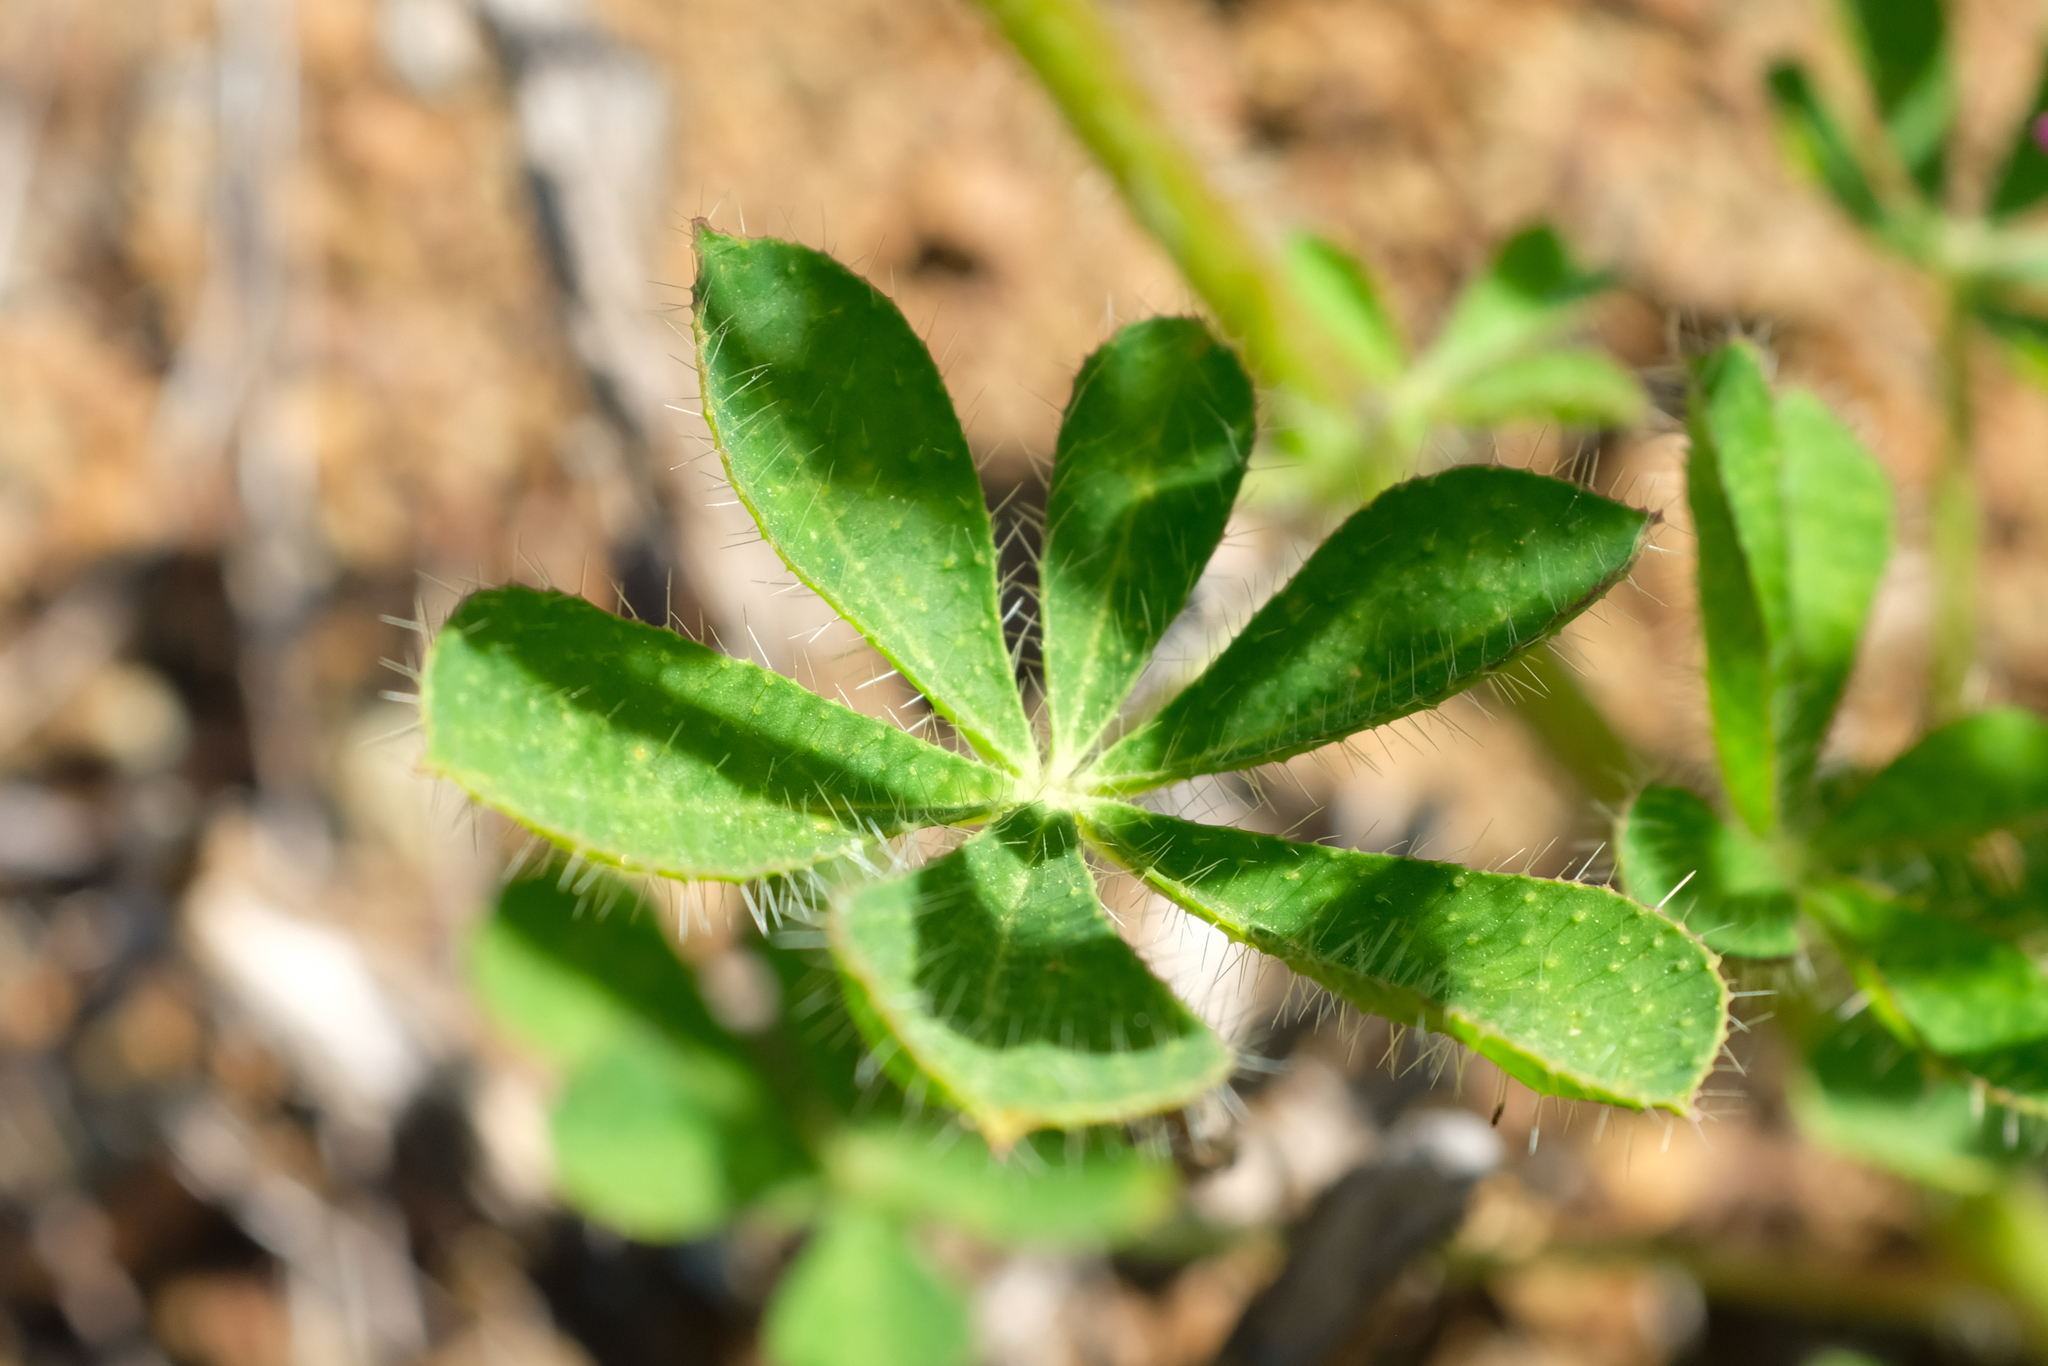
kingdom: Plantae
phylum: Tracheophyta
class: Magnoliopsida
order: Fabales
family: Fabaceae
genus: Lupinus
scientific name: Lupinus hirsutissimus
